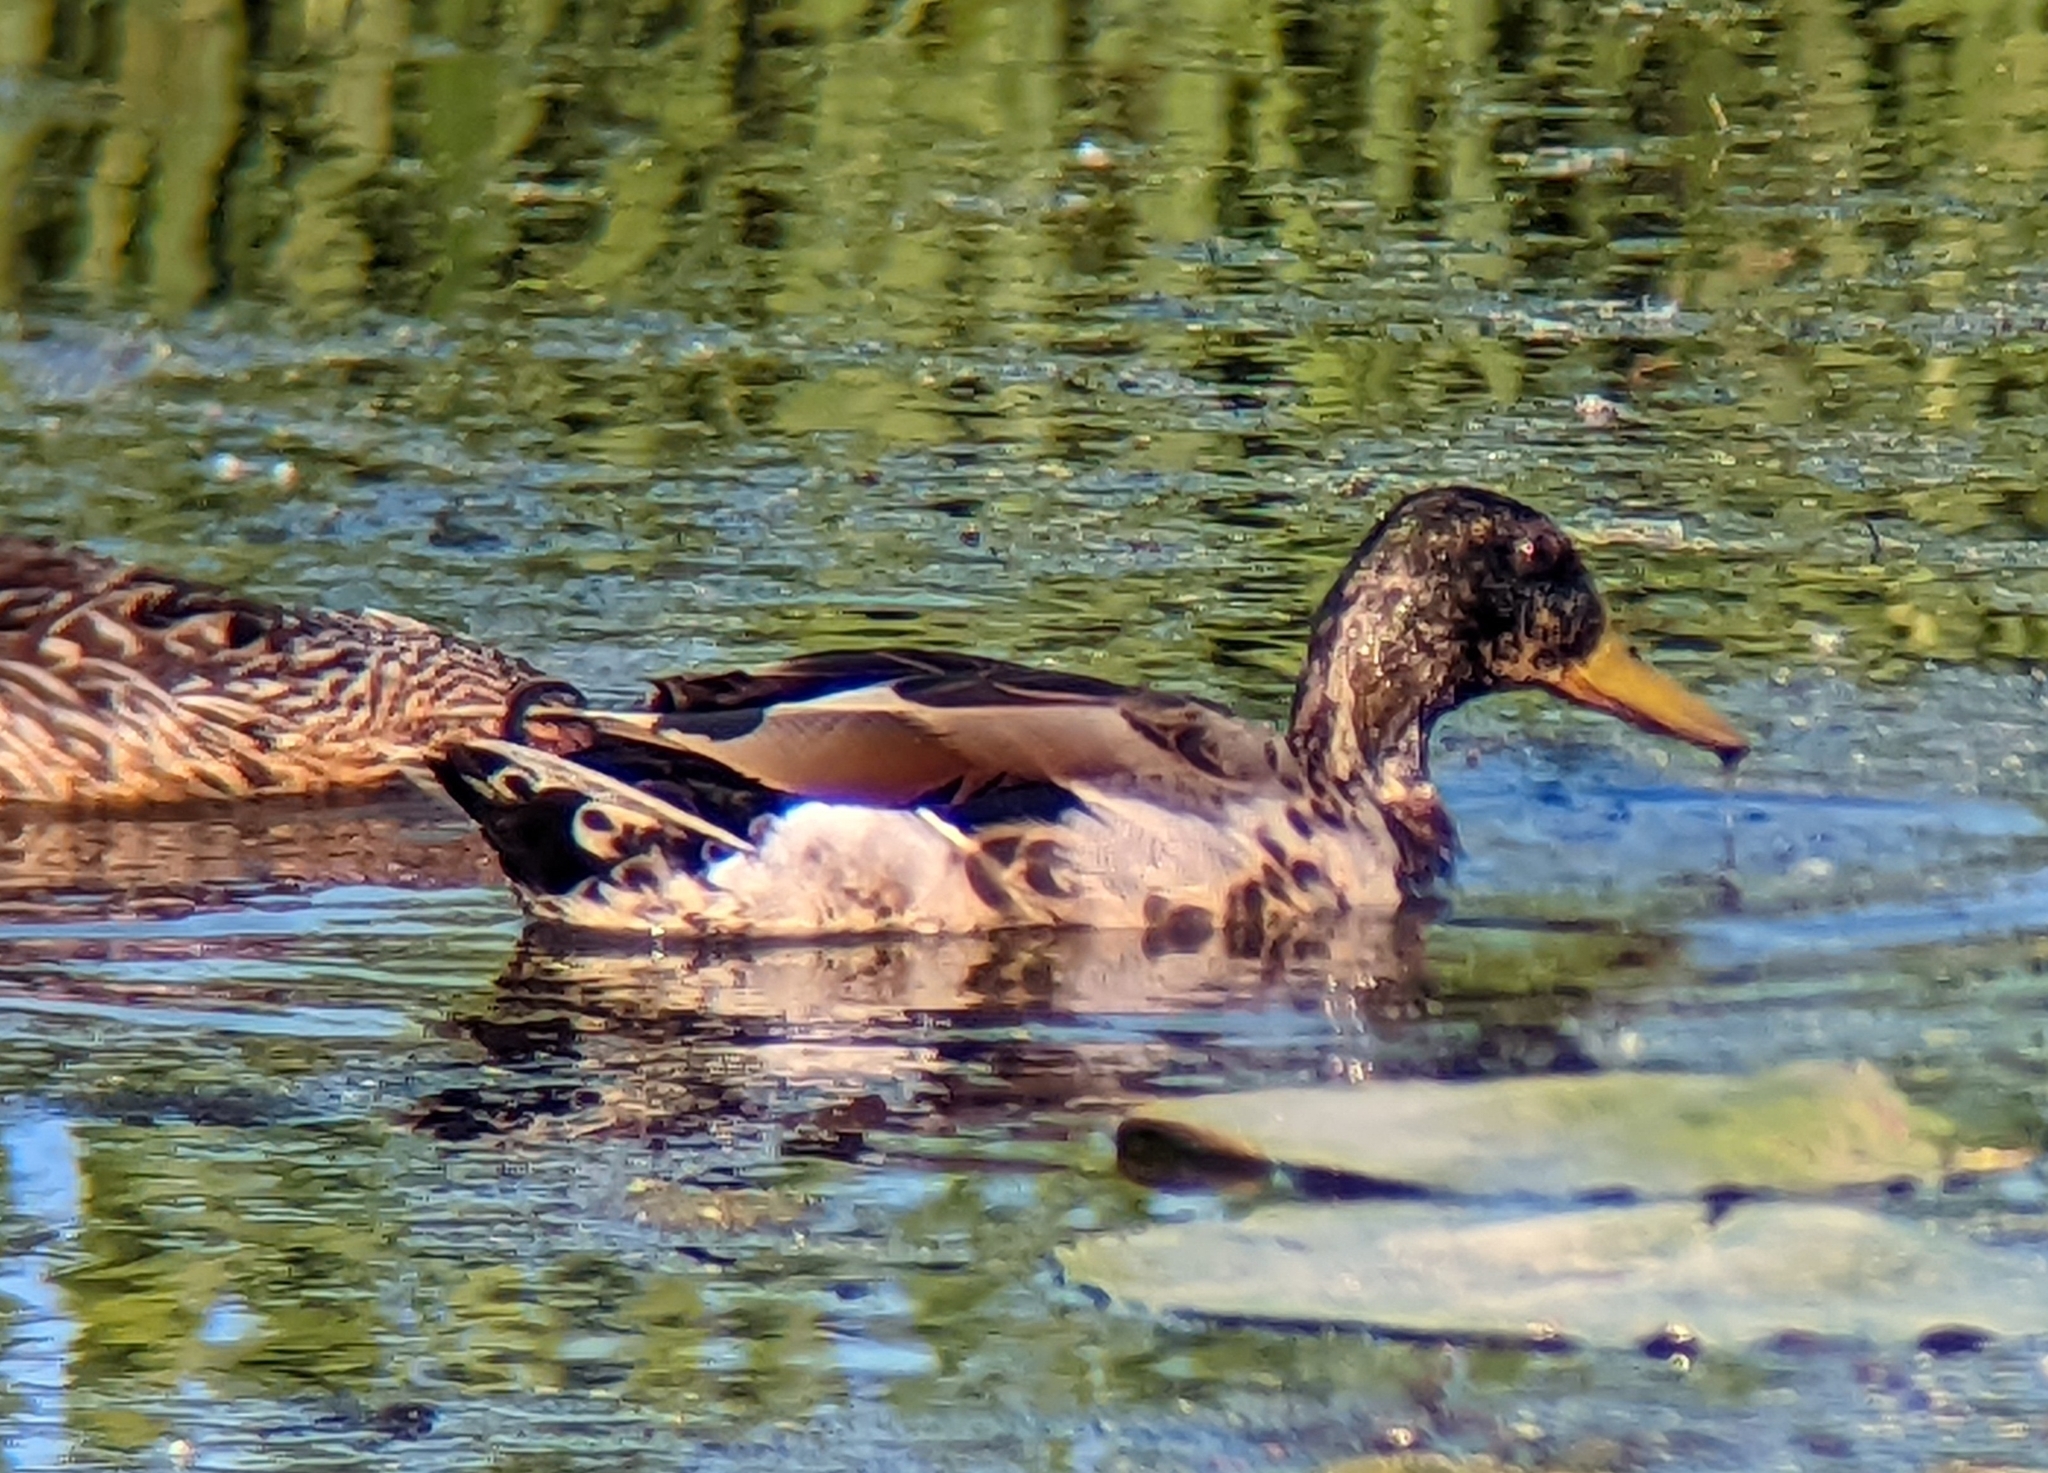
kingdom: Animalia
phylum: Chordata
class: Aves
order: Anseriformes
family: Anatidae
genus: Anas
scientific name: Anas platyrhynchos
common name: Mallard
